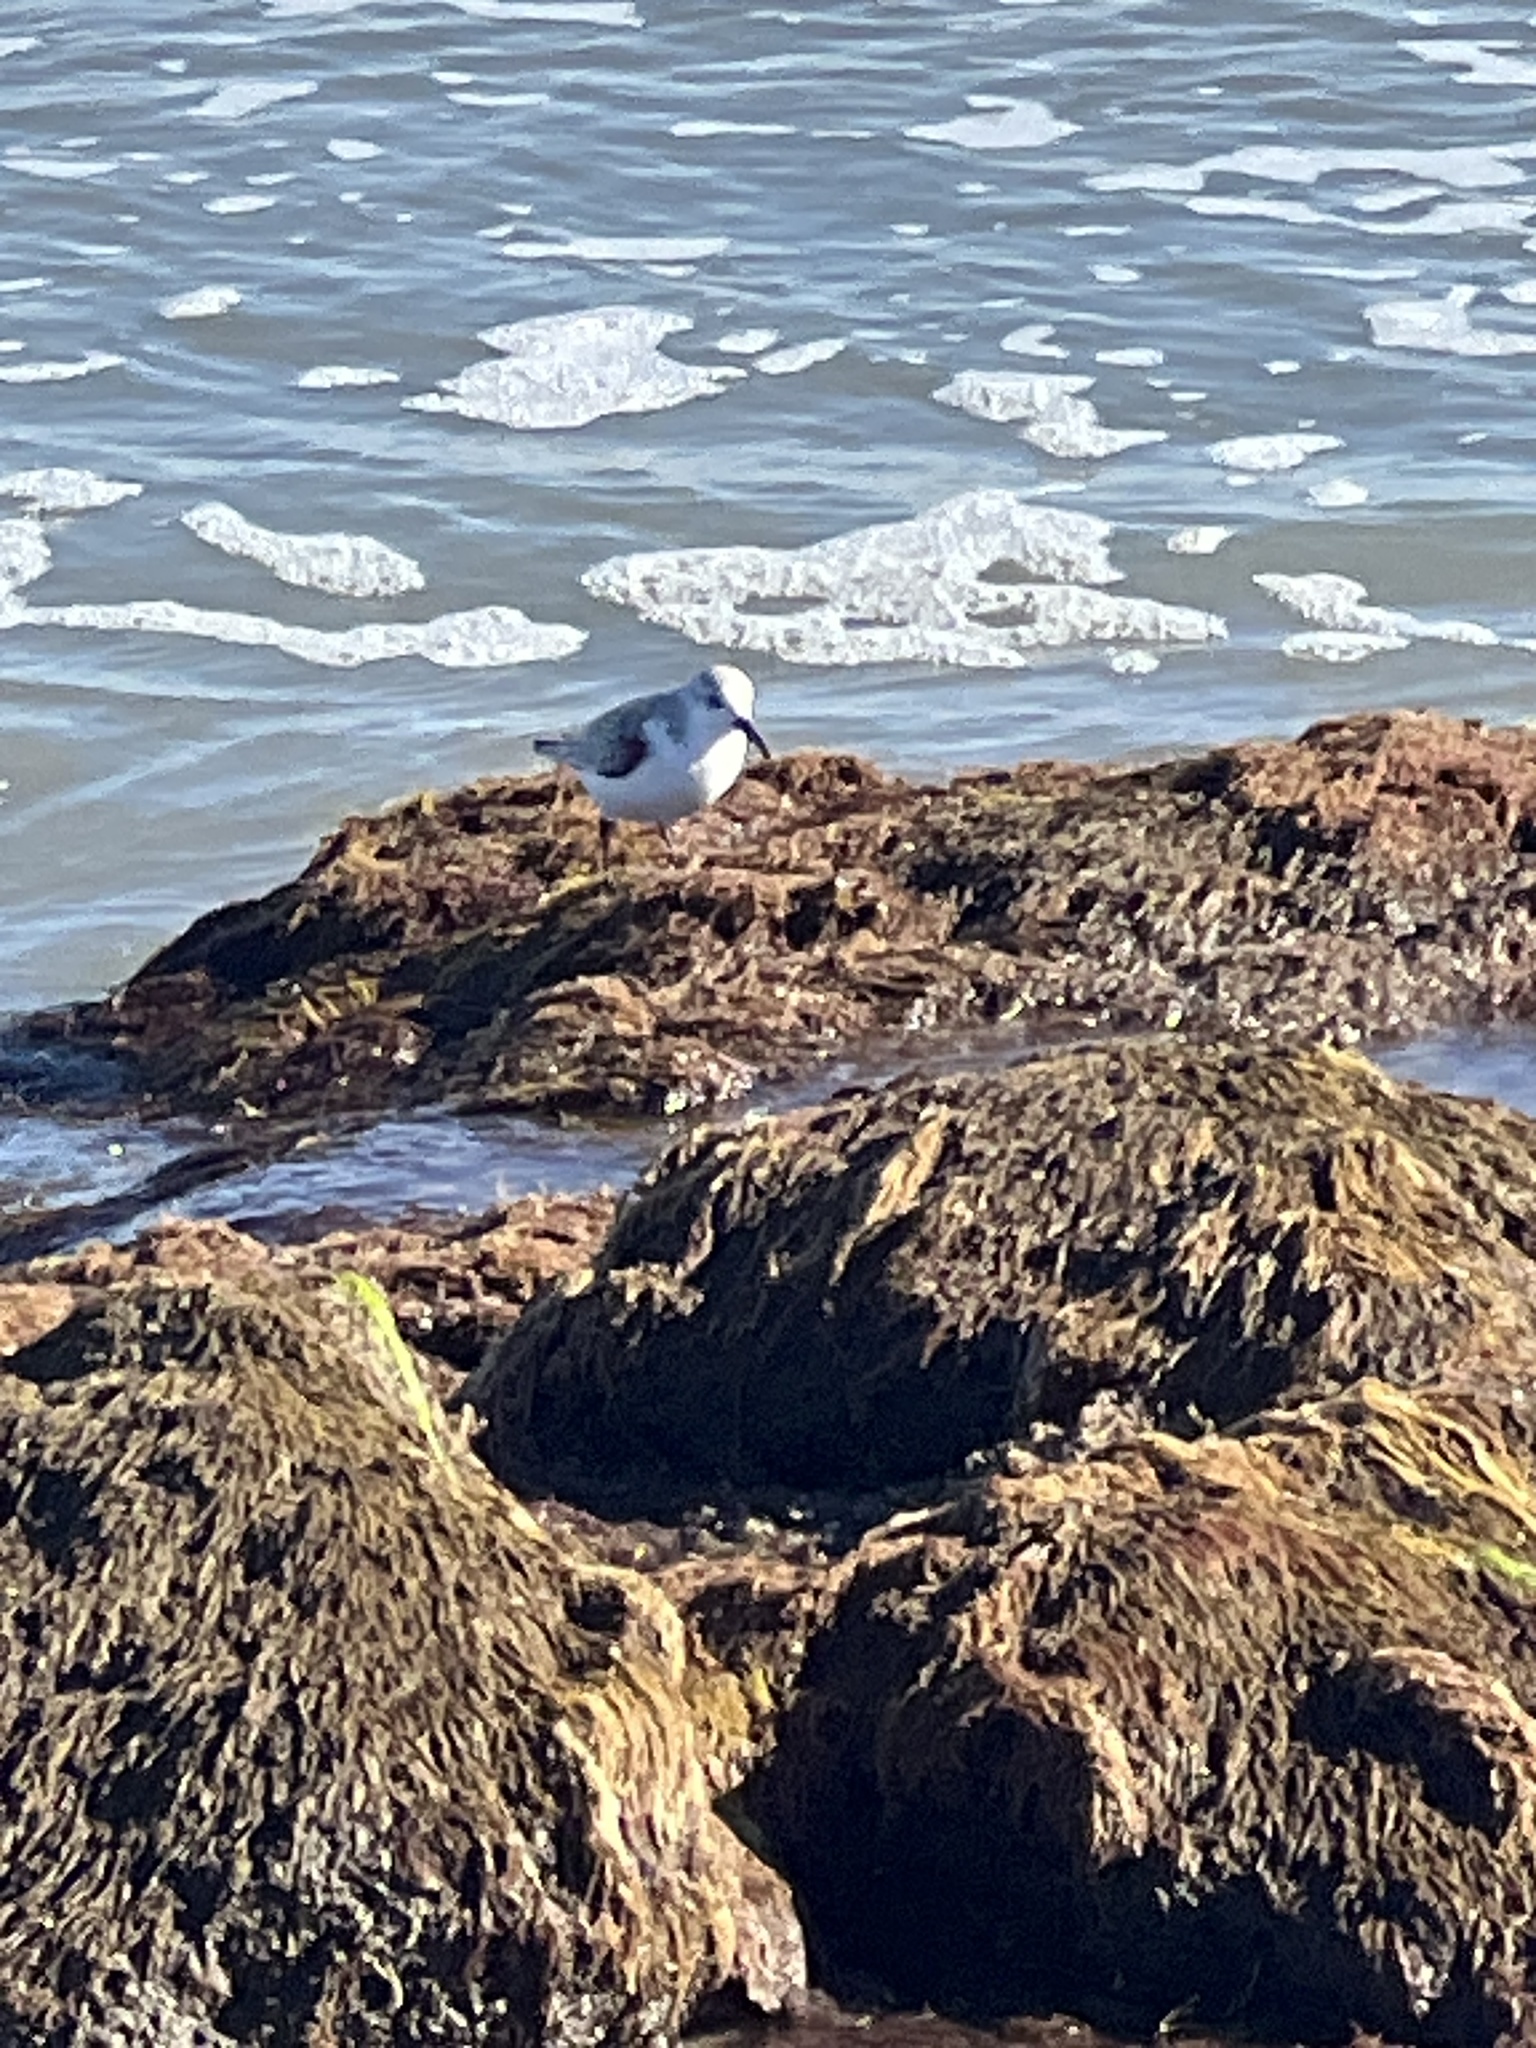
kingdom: Animalia
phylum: Chordata
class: Aves
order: Charadriiformes
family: Scolopacidae
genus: Calidris
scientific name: Calidris alba
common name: Sanderling
